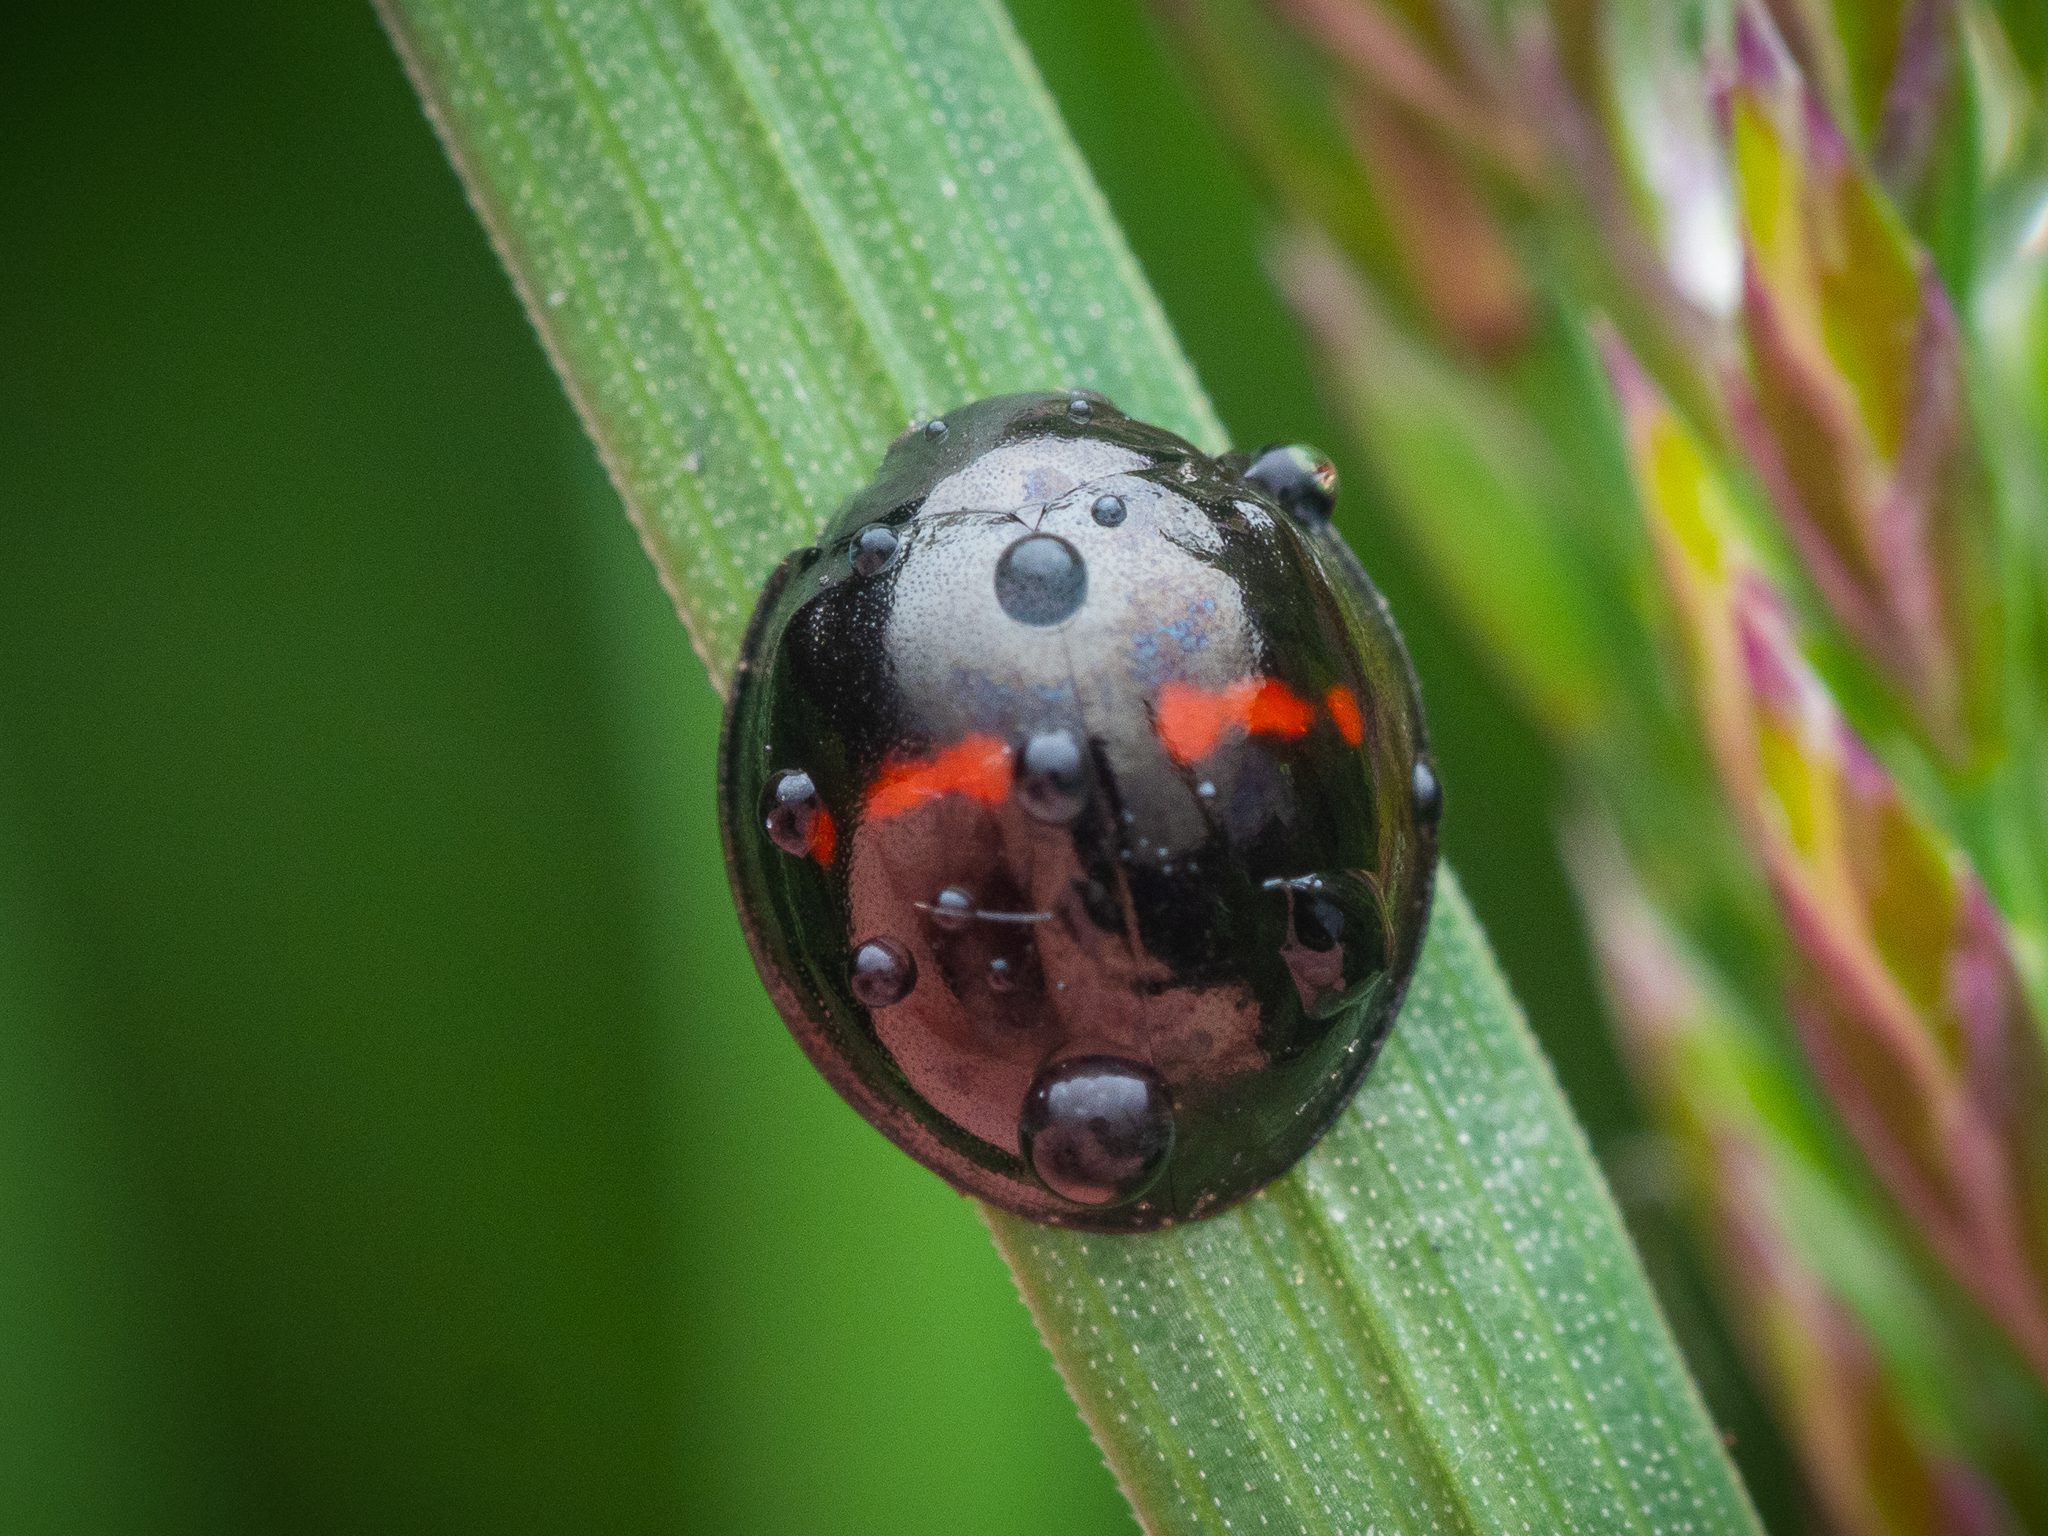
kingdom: Animalia
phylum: Arthropoda
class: Insecta
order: Coleoptera
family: Coccinellidae
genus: Chilocorus
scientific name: Chilocorus bipustulatus
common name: Heather ladybird
